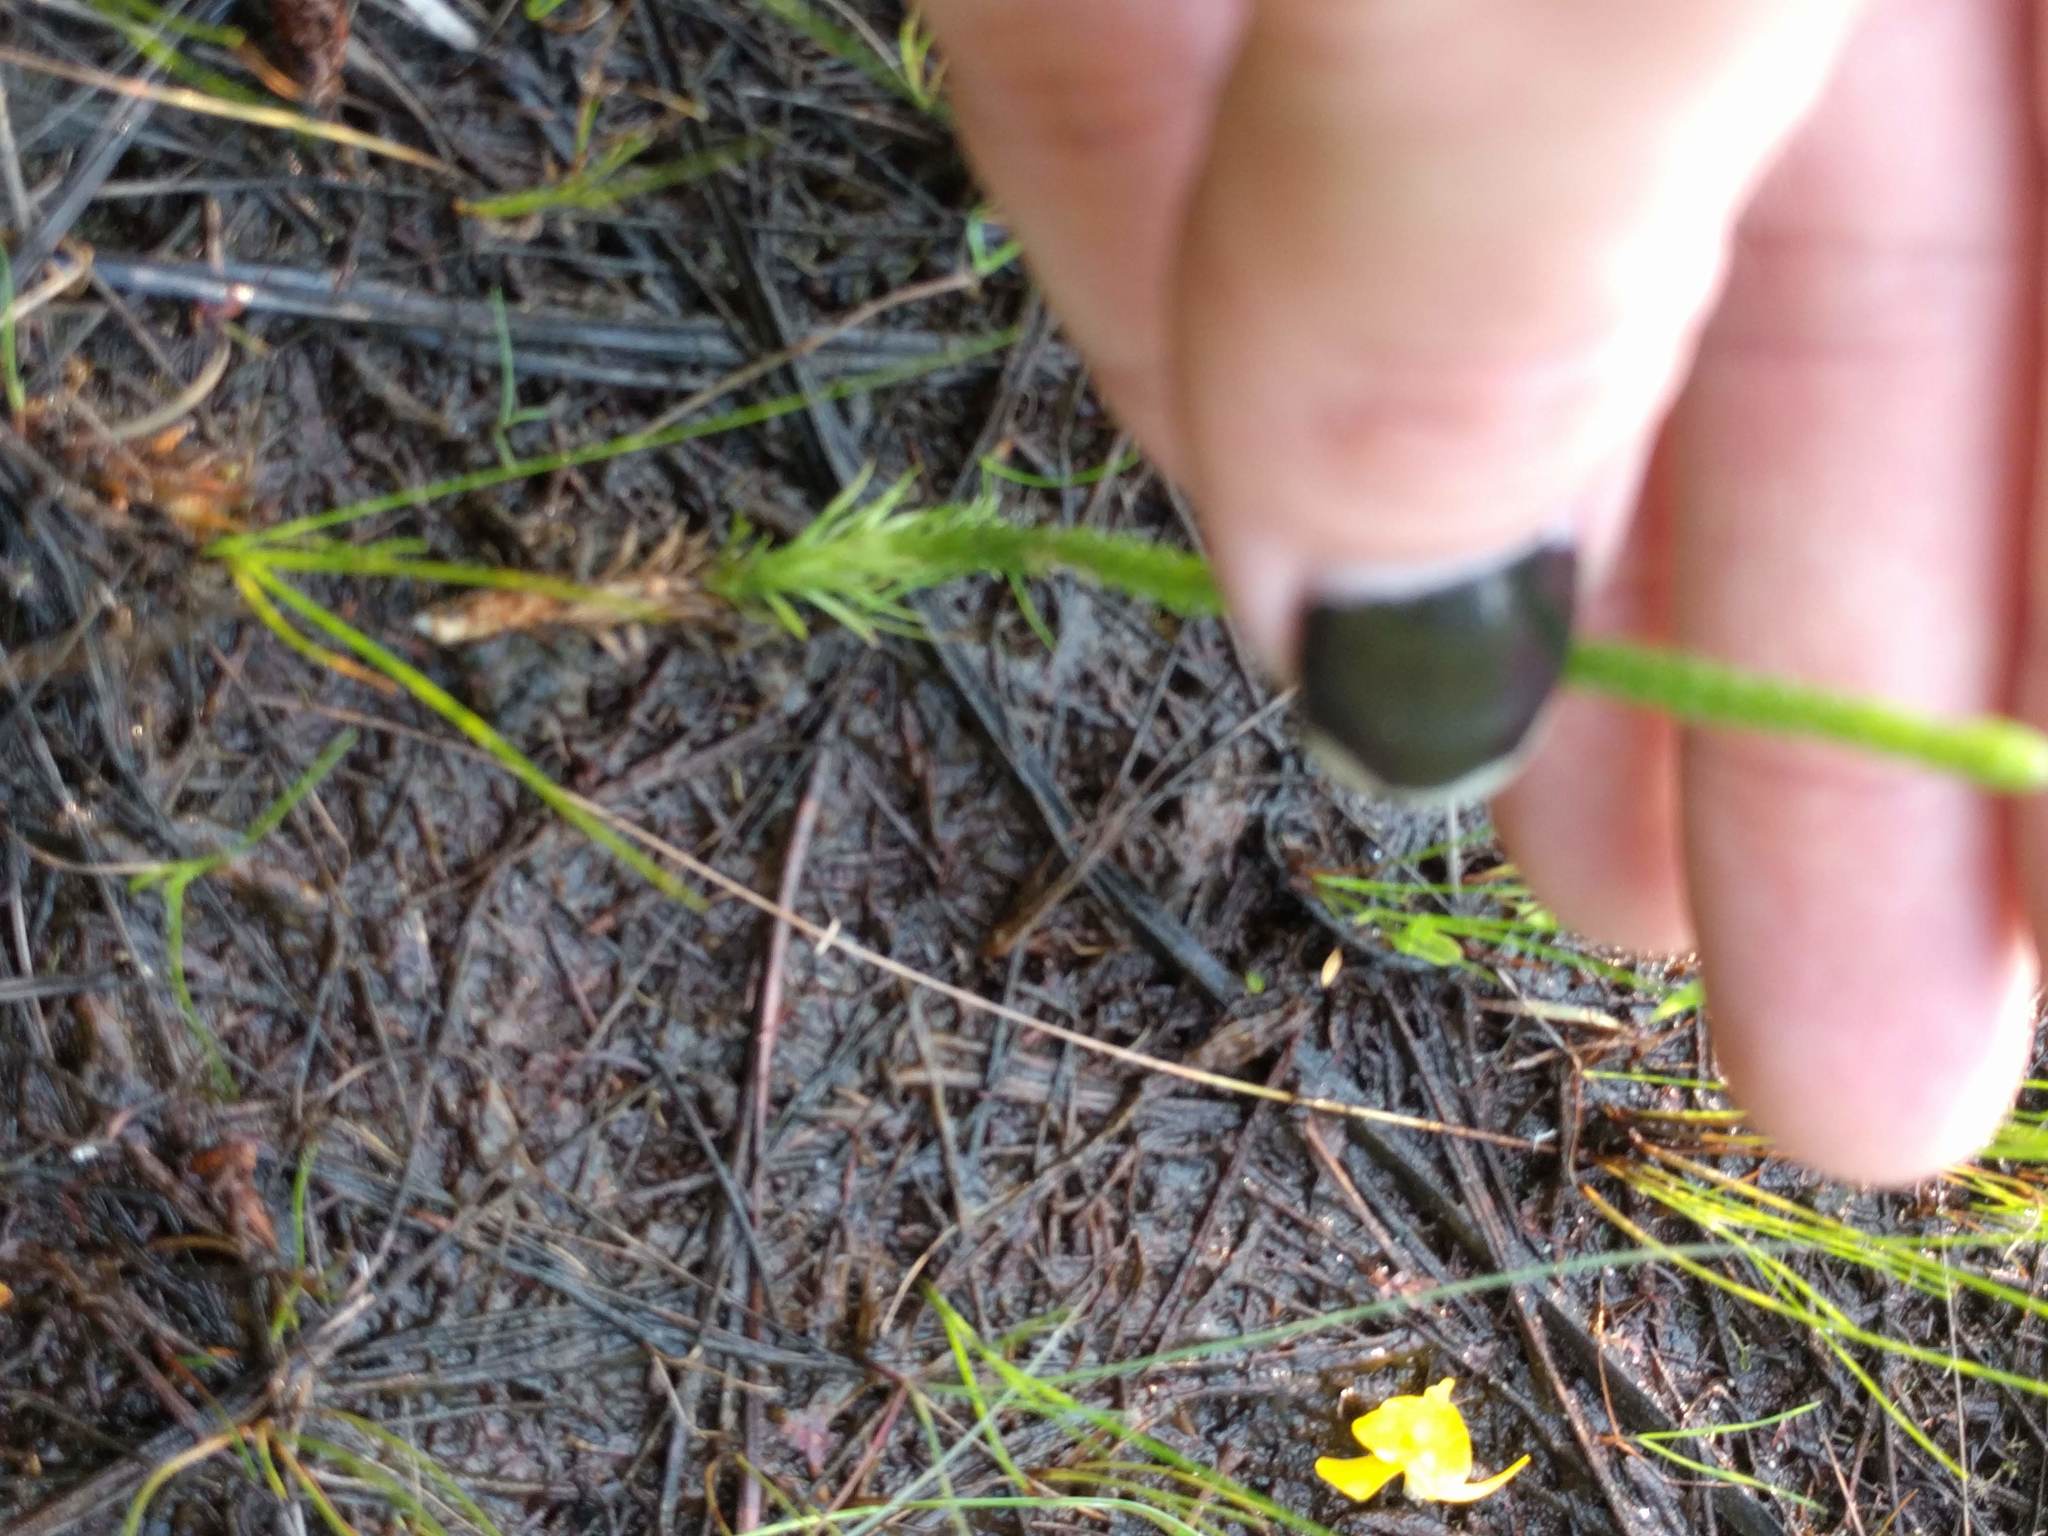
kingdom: Plantae
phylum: Tracheophyta
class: Lycopodiopsida
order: Lycopodiales
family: Lycopodiaceae
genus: Lycopodiella
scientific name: Lycopodiella appressa
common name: Appressed bog clubmoss
